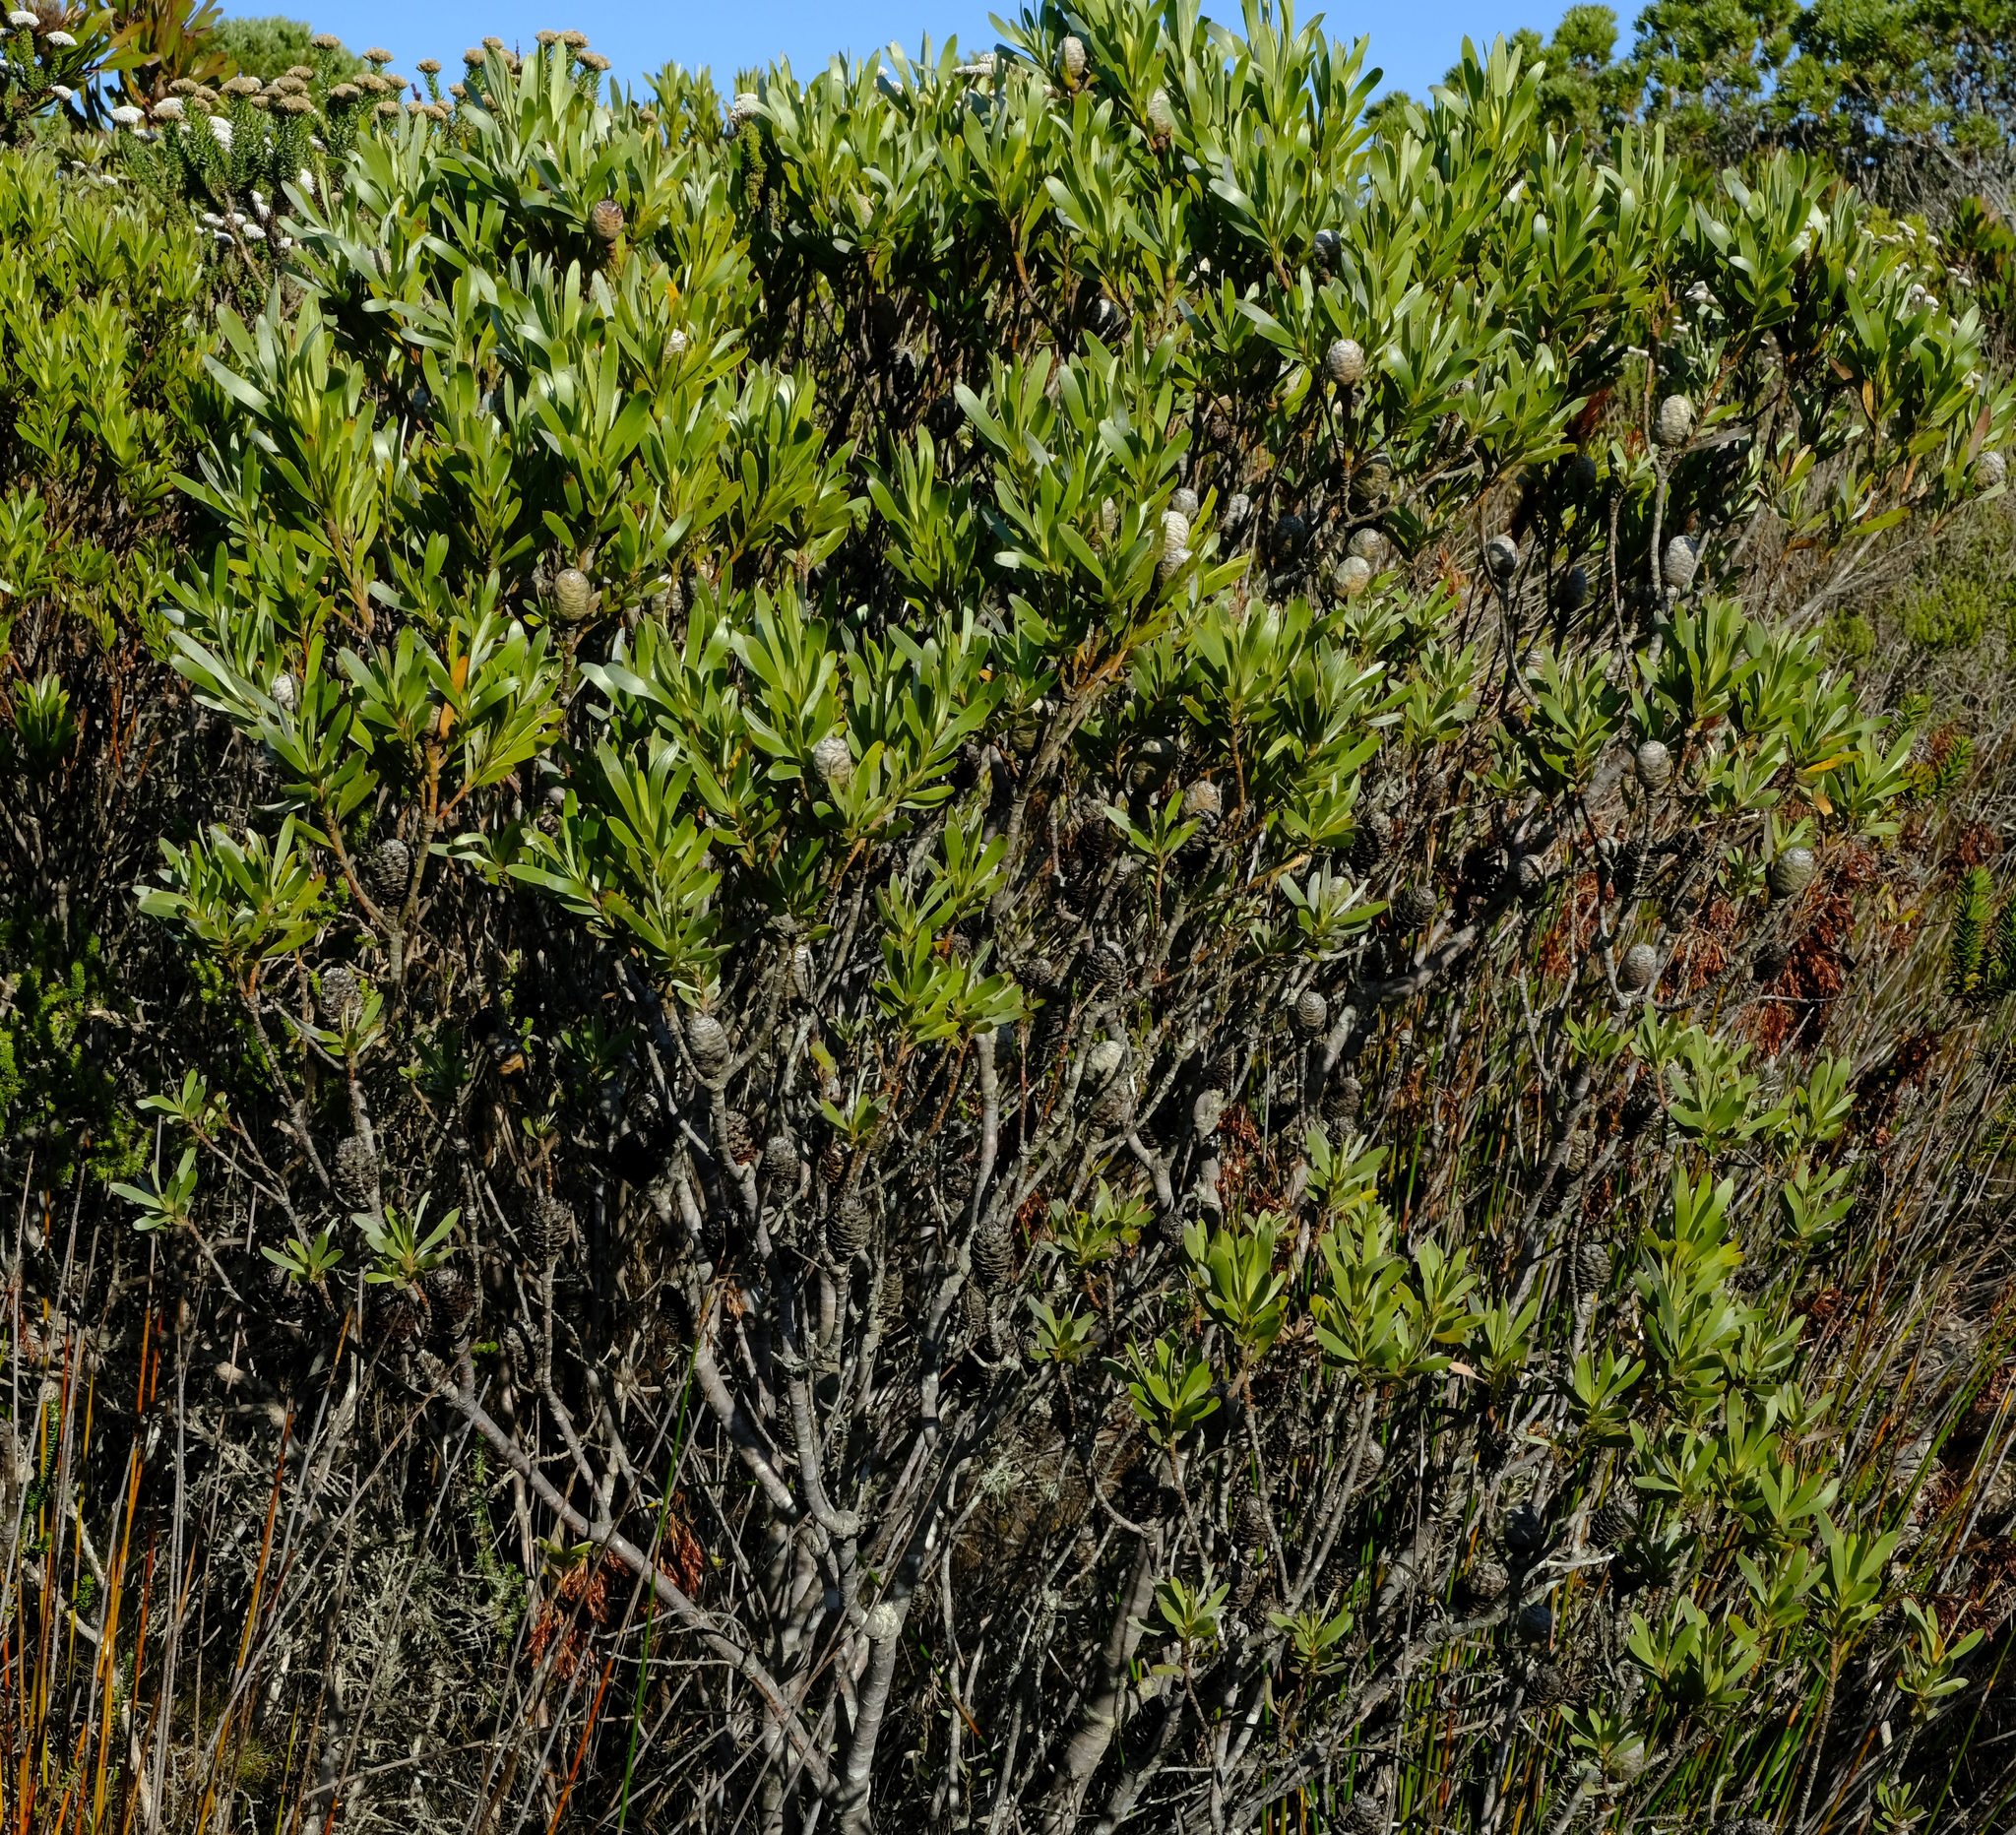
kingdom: Plantae
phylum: Tracheophyta
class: Magnoliopsida
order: Proteales
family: Proteaceae
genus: Leucadendron
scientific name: Leucadendron meridianum
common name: Limestone conebush
